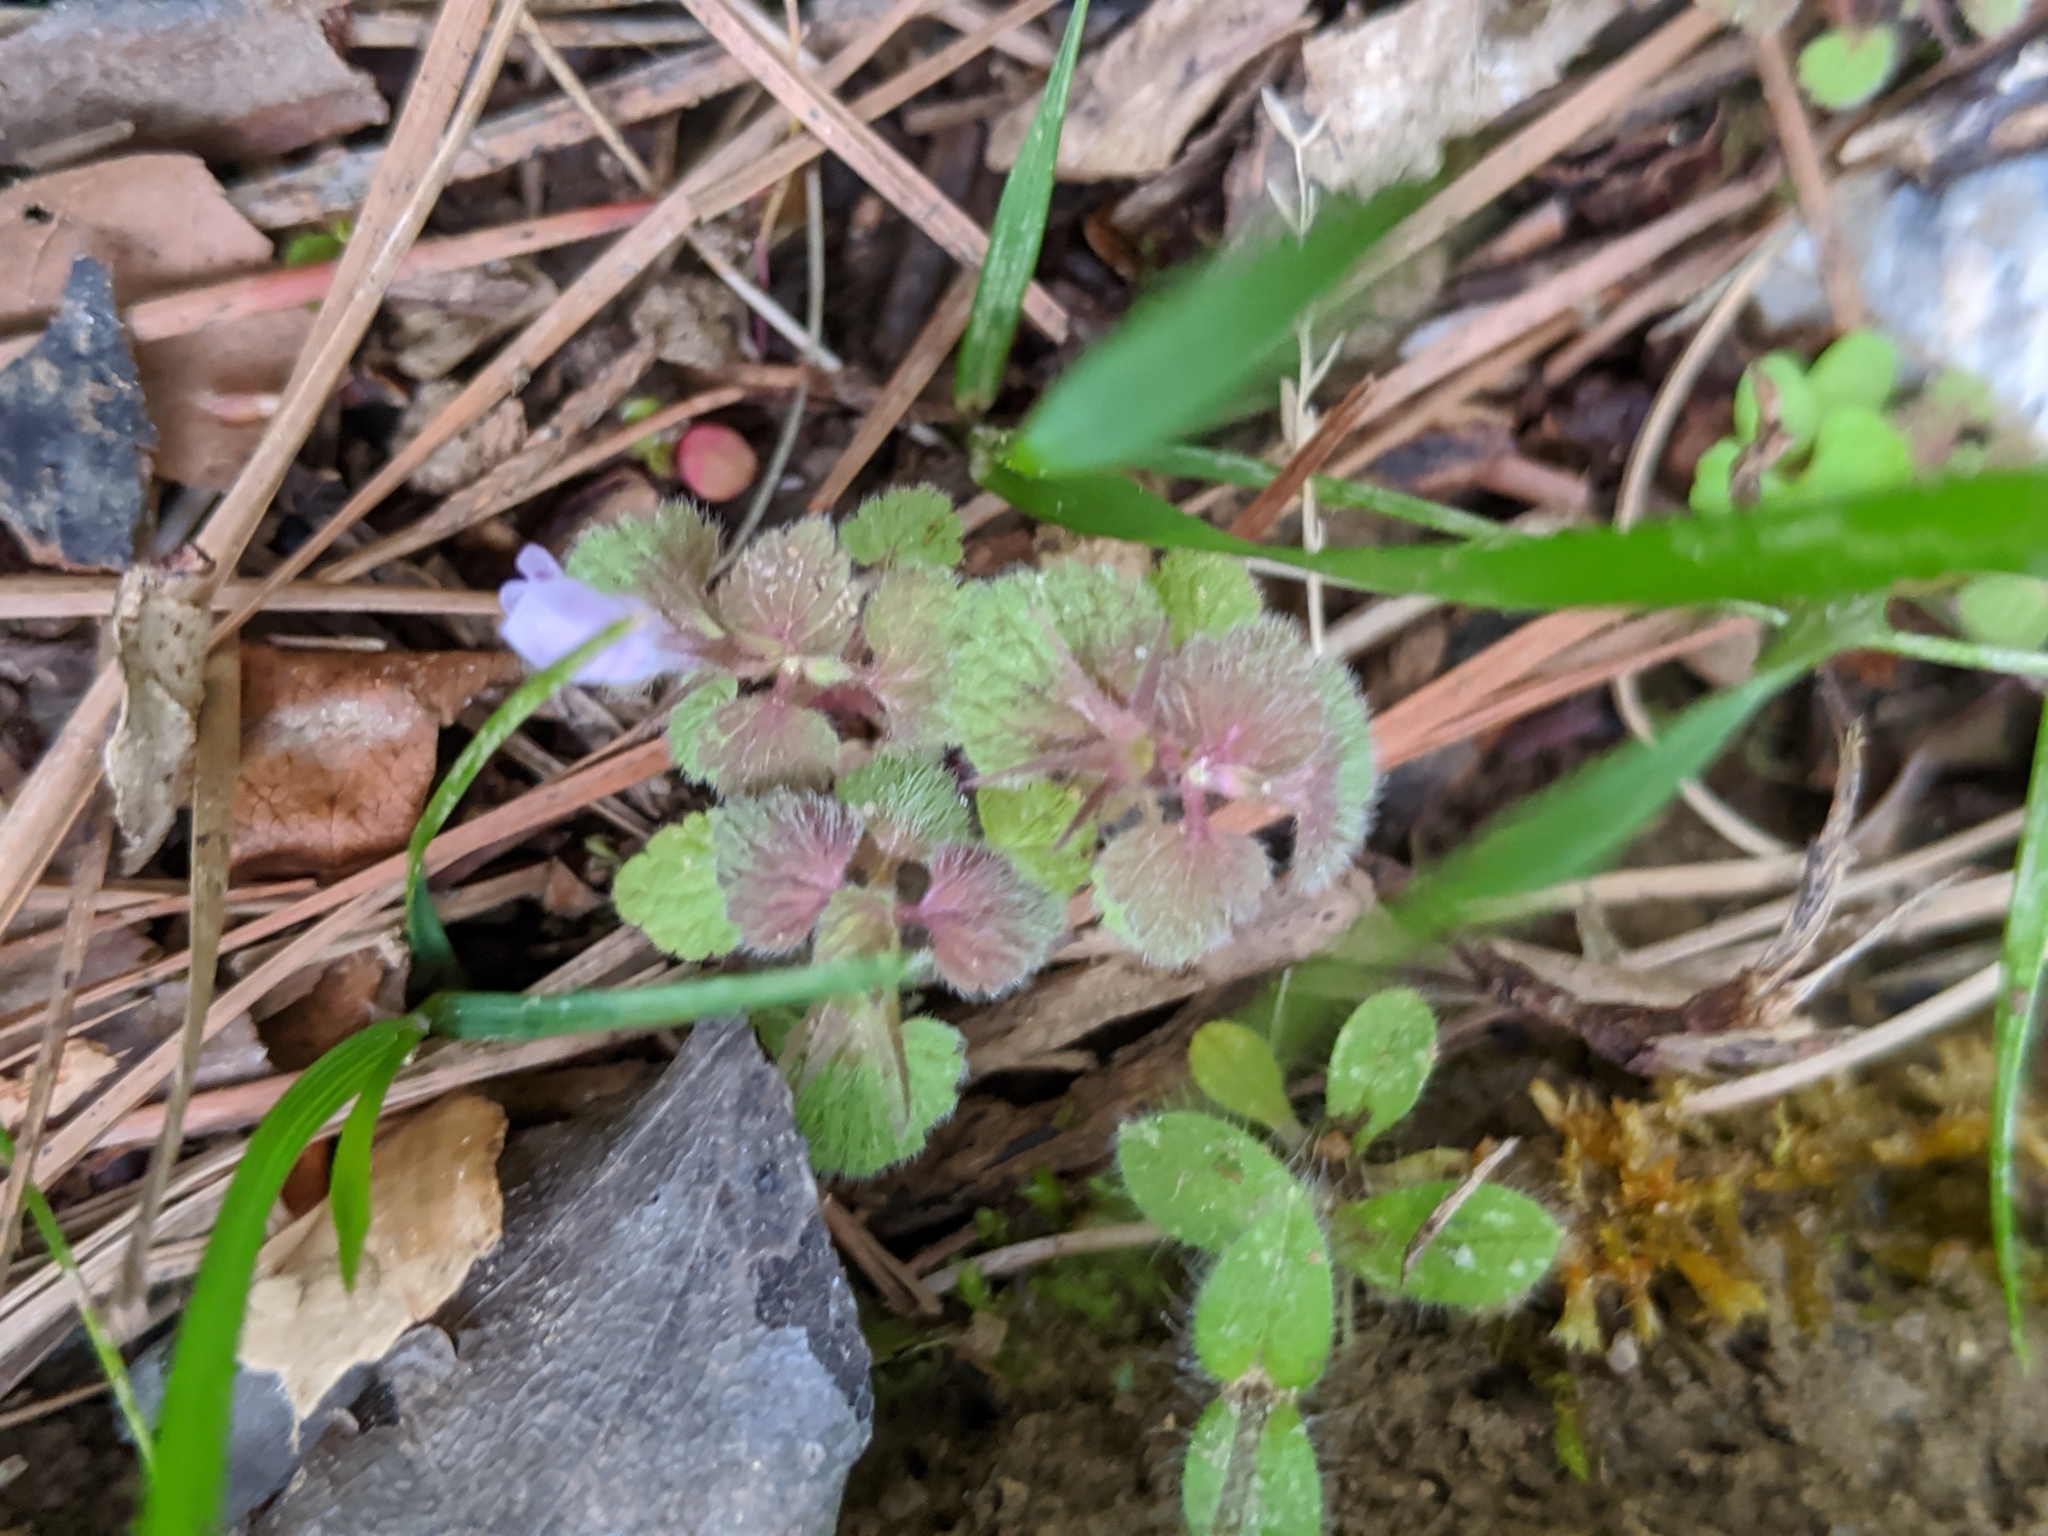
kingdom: Plantae
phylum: Tracheophyta
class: Magnoliopsida
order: Lamiales
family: Lamiaceae
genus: Lamium
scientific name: Lamium purpureum
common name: Red dead-nettle
